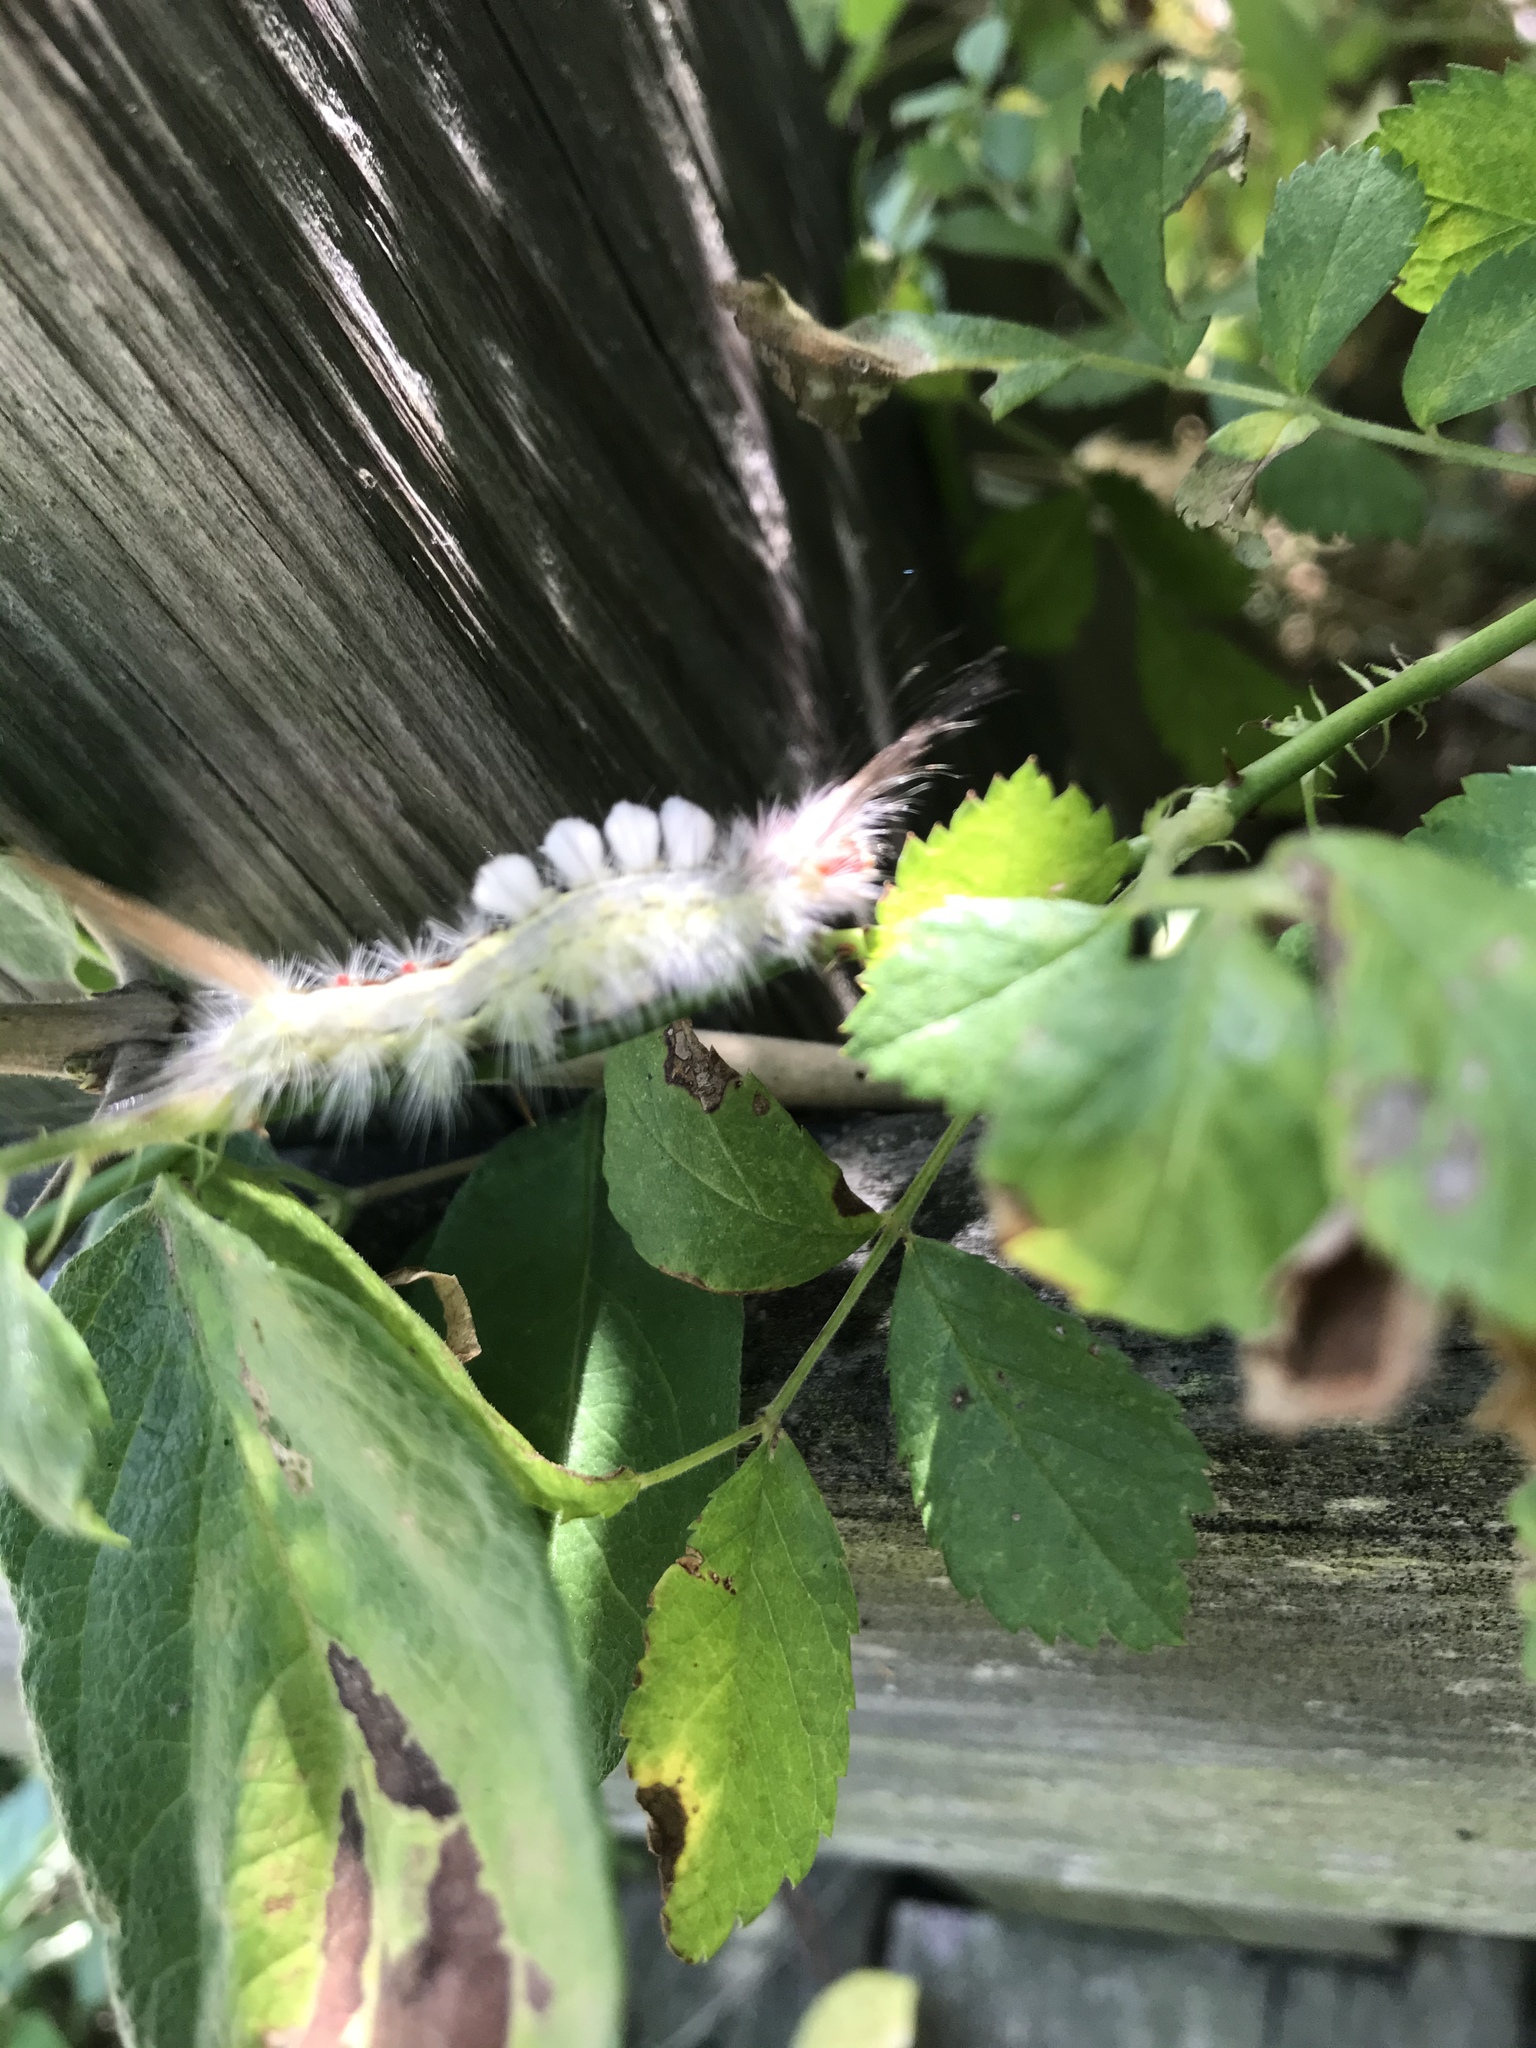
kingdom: Animalia
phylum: Arthropoda
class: Insecta
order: Lepidoptera
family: Erebidae
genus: Orgyia
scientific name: Orgyia leucostigma
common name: White-marked tussock moth
